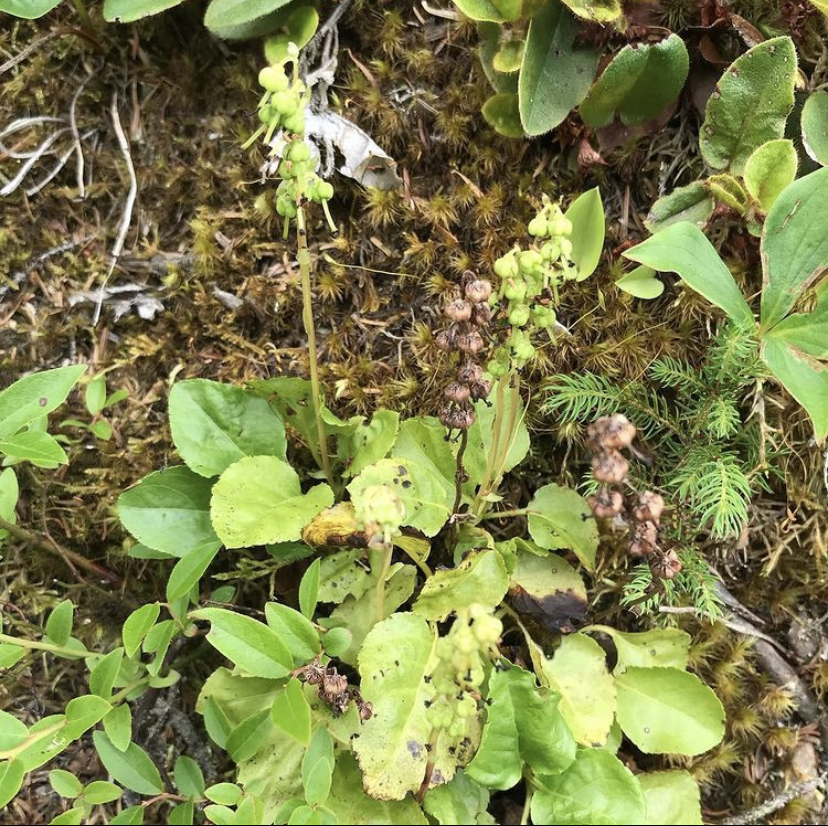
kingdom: Plantae
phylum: Tracheophyta
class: Magnoliopsida
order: Ericales
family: Ericaceae
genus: Orthilia
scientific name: Orthilia secunda
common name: One-sided orthilia
